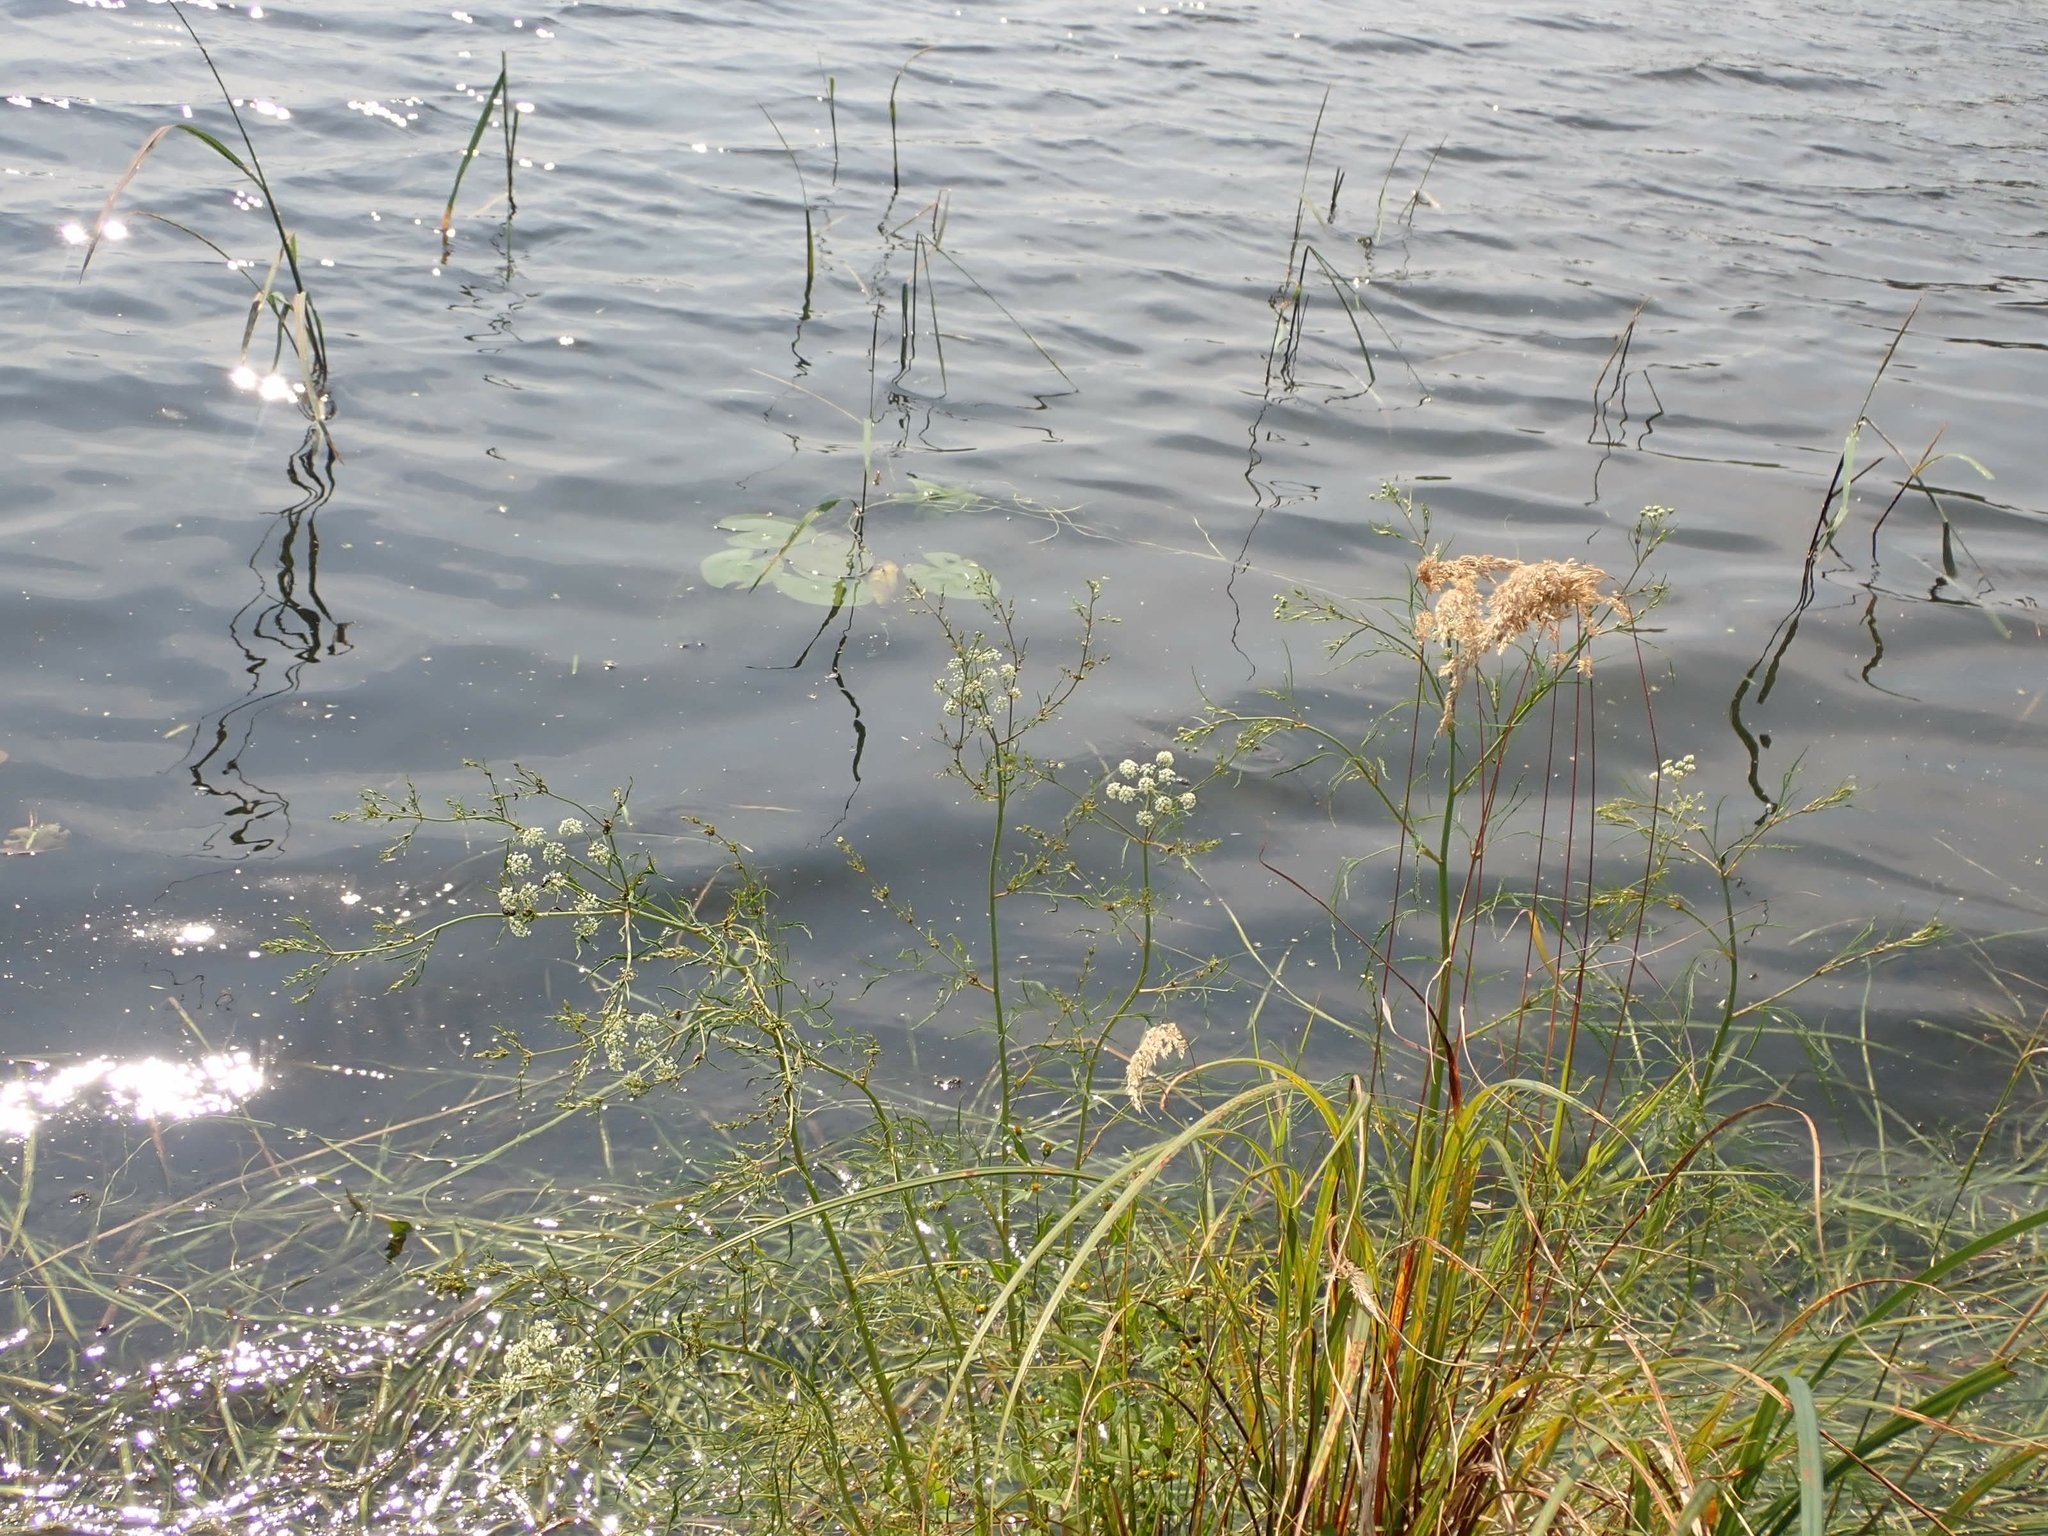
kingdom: Plantae
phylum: Tracheophyta
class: Magnoliopsida
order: Apiales
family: Apiaceae
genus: Cicuta
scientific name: Cicuta bulbifera
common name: Bulb-bearing water-hemlock
